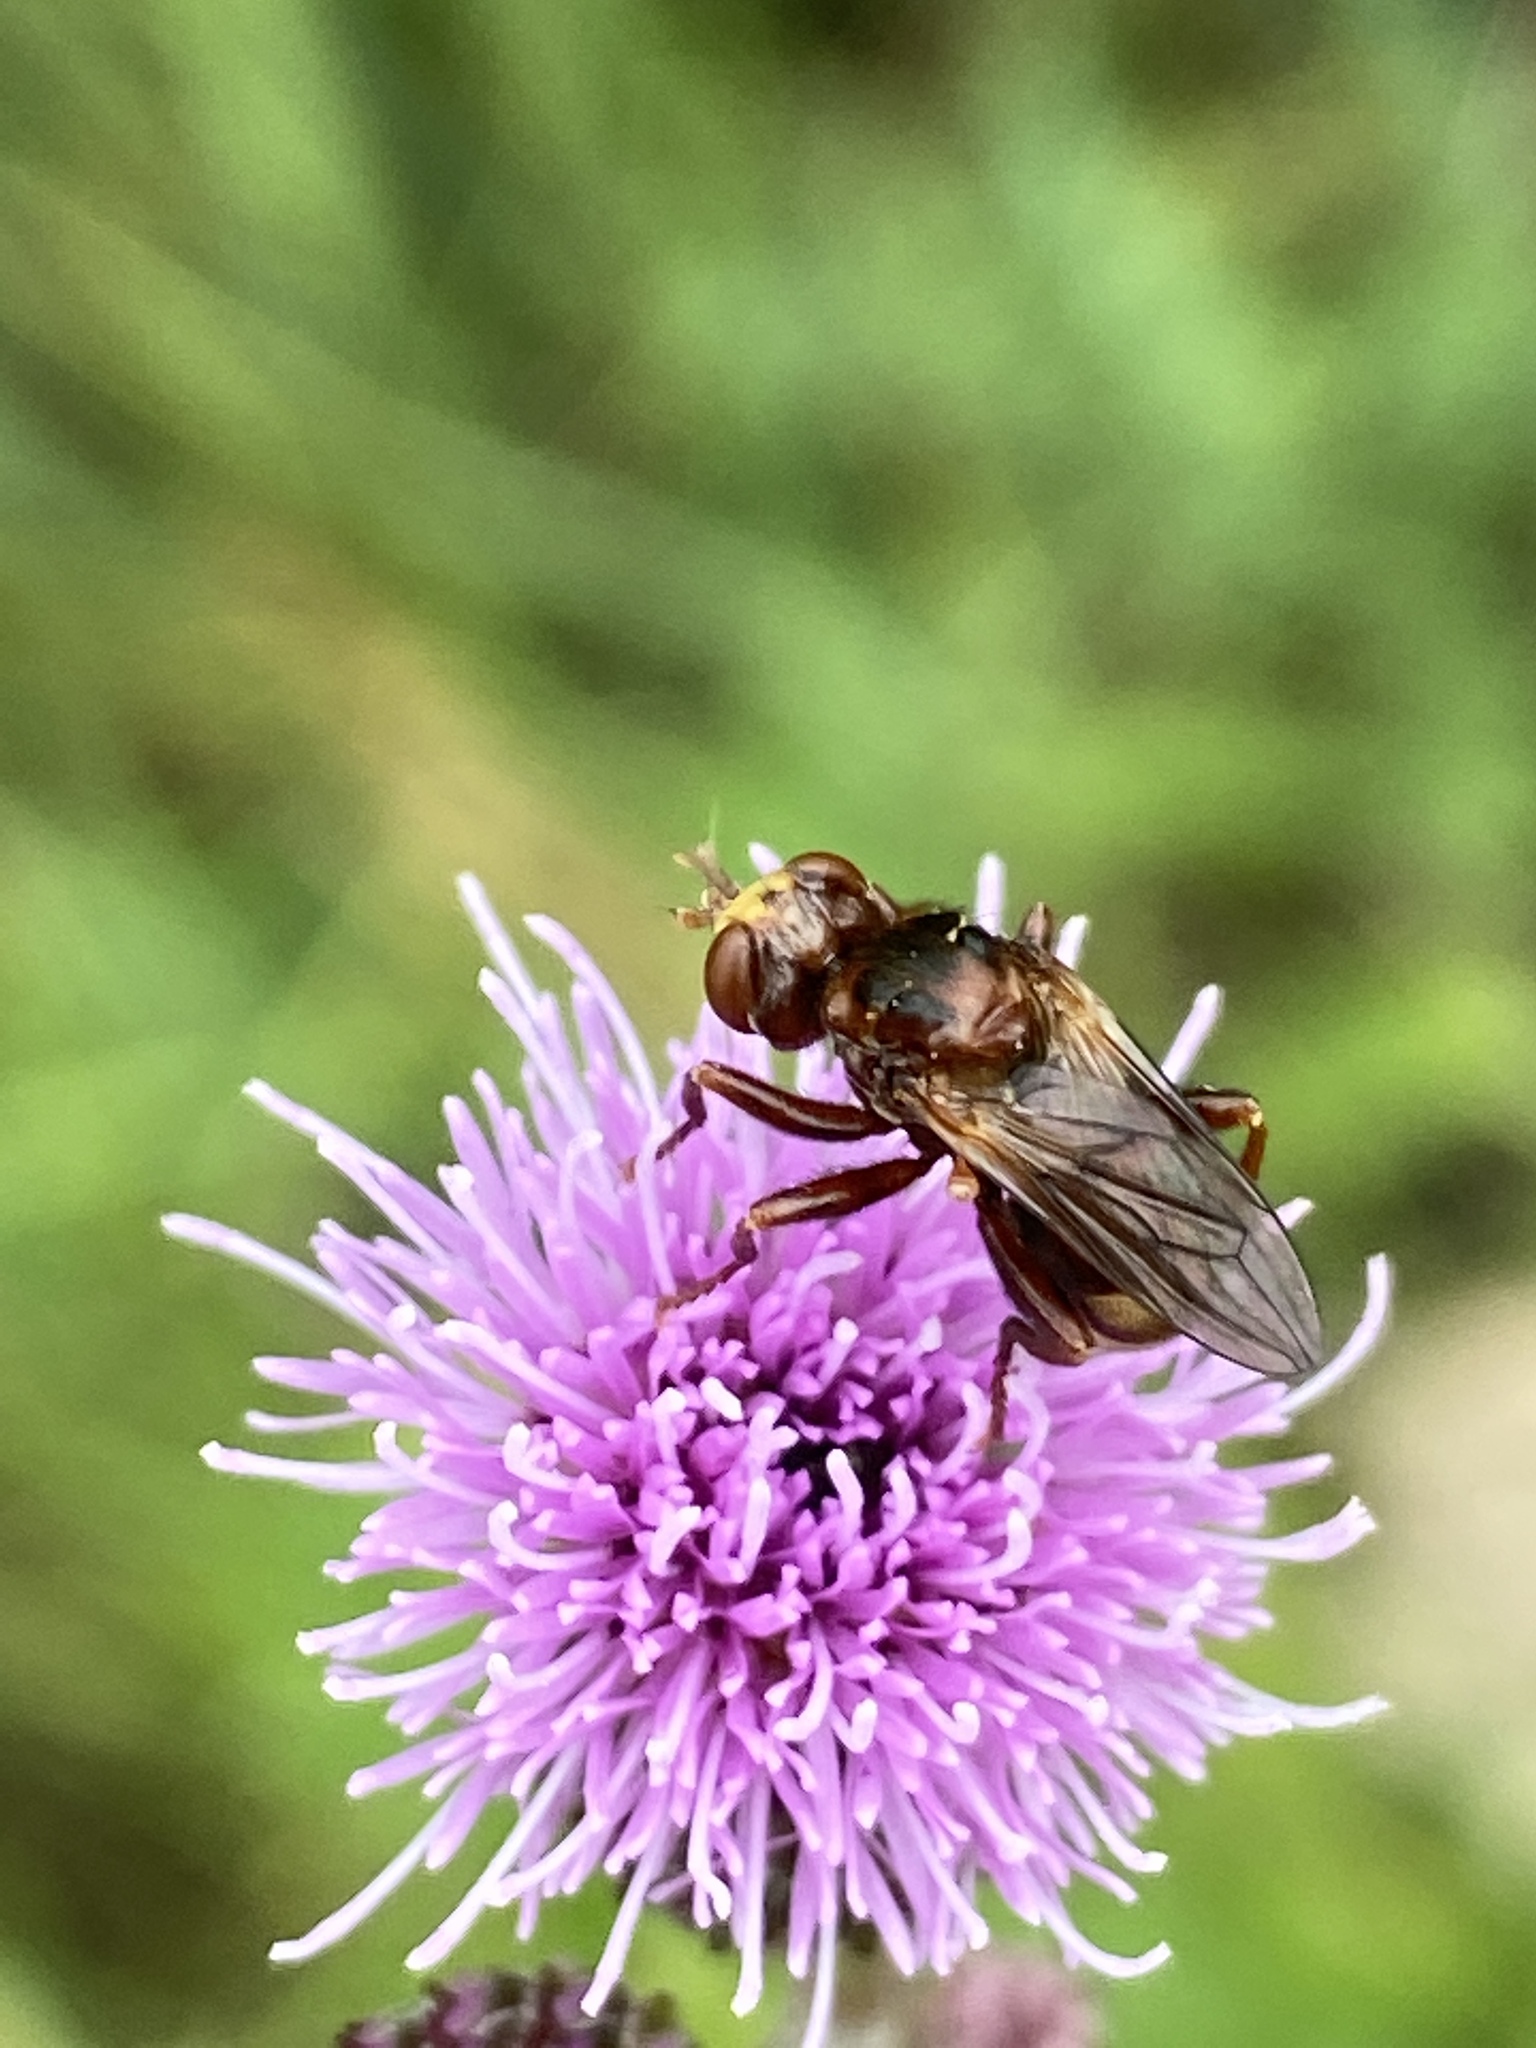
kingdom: Animalia
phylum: Arthropoda
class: Insecta
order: Diptera
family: Conopidae
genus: Sicus
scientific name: Sicus ferrugineus
